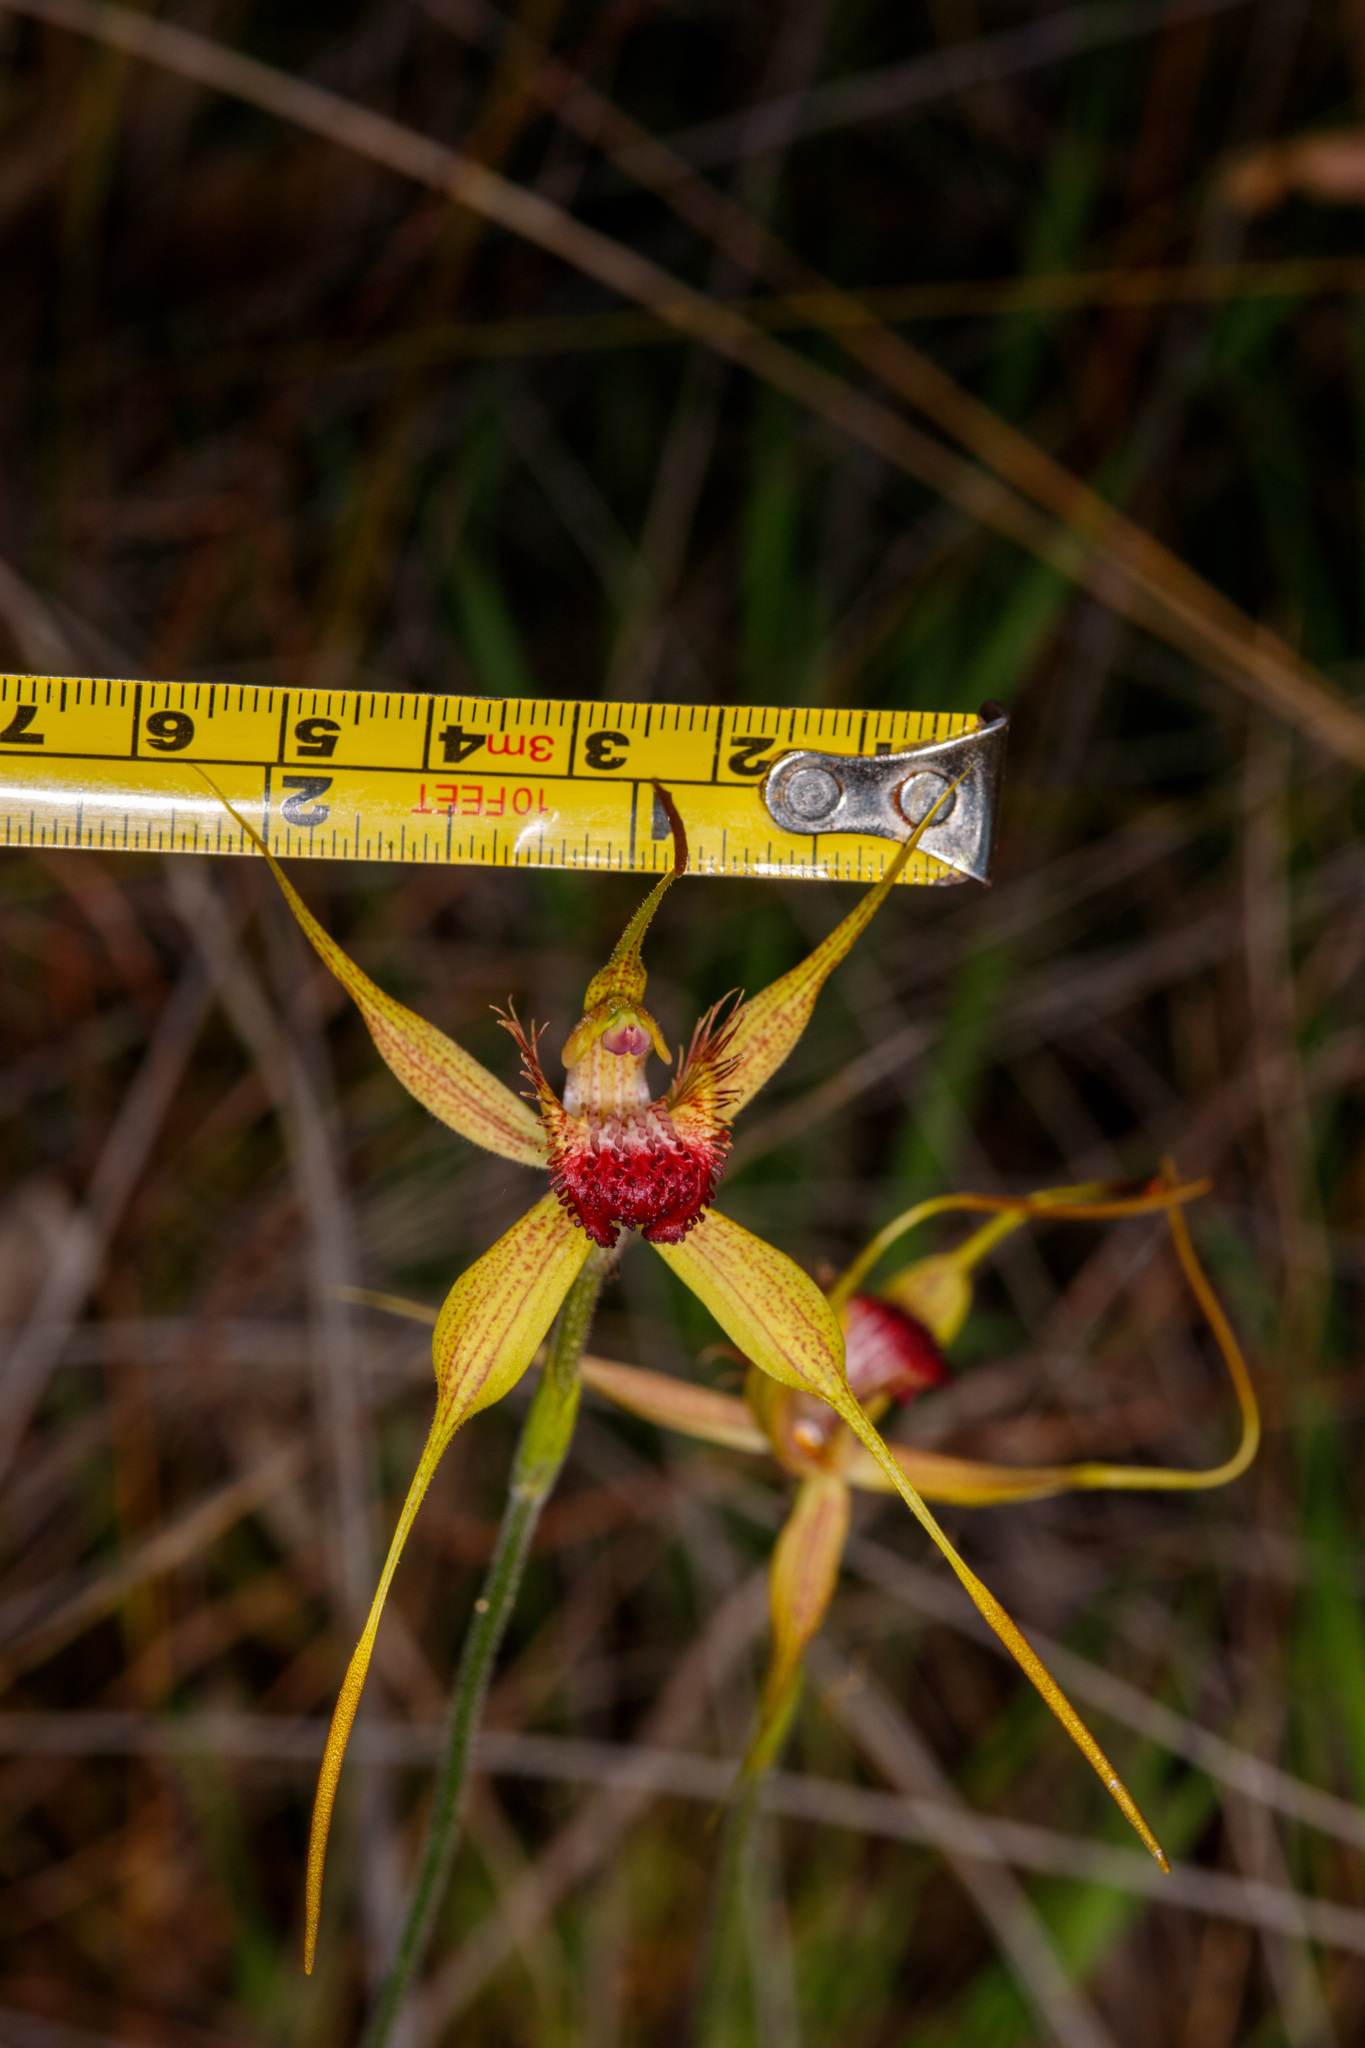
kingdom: Plantae
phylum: Tracheophyta
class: Liliopsida
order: Asparagales
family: Orchidaceae
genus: Caladenia
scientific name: Caladenia pectinata
